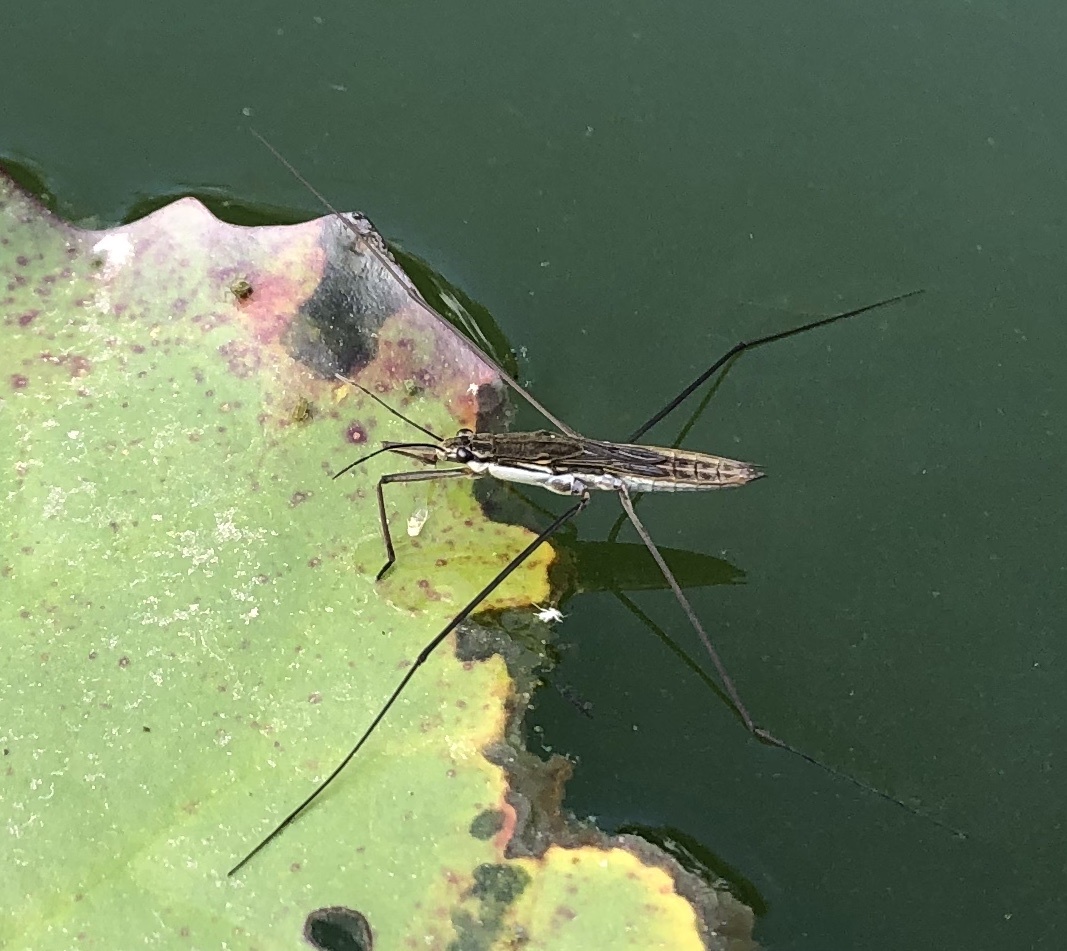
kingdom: Animalia
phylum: Arthropoda
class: Insecta
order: Hemiptera
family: Gerridae
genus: Aquarius
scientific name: Aquarius paludum
